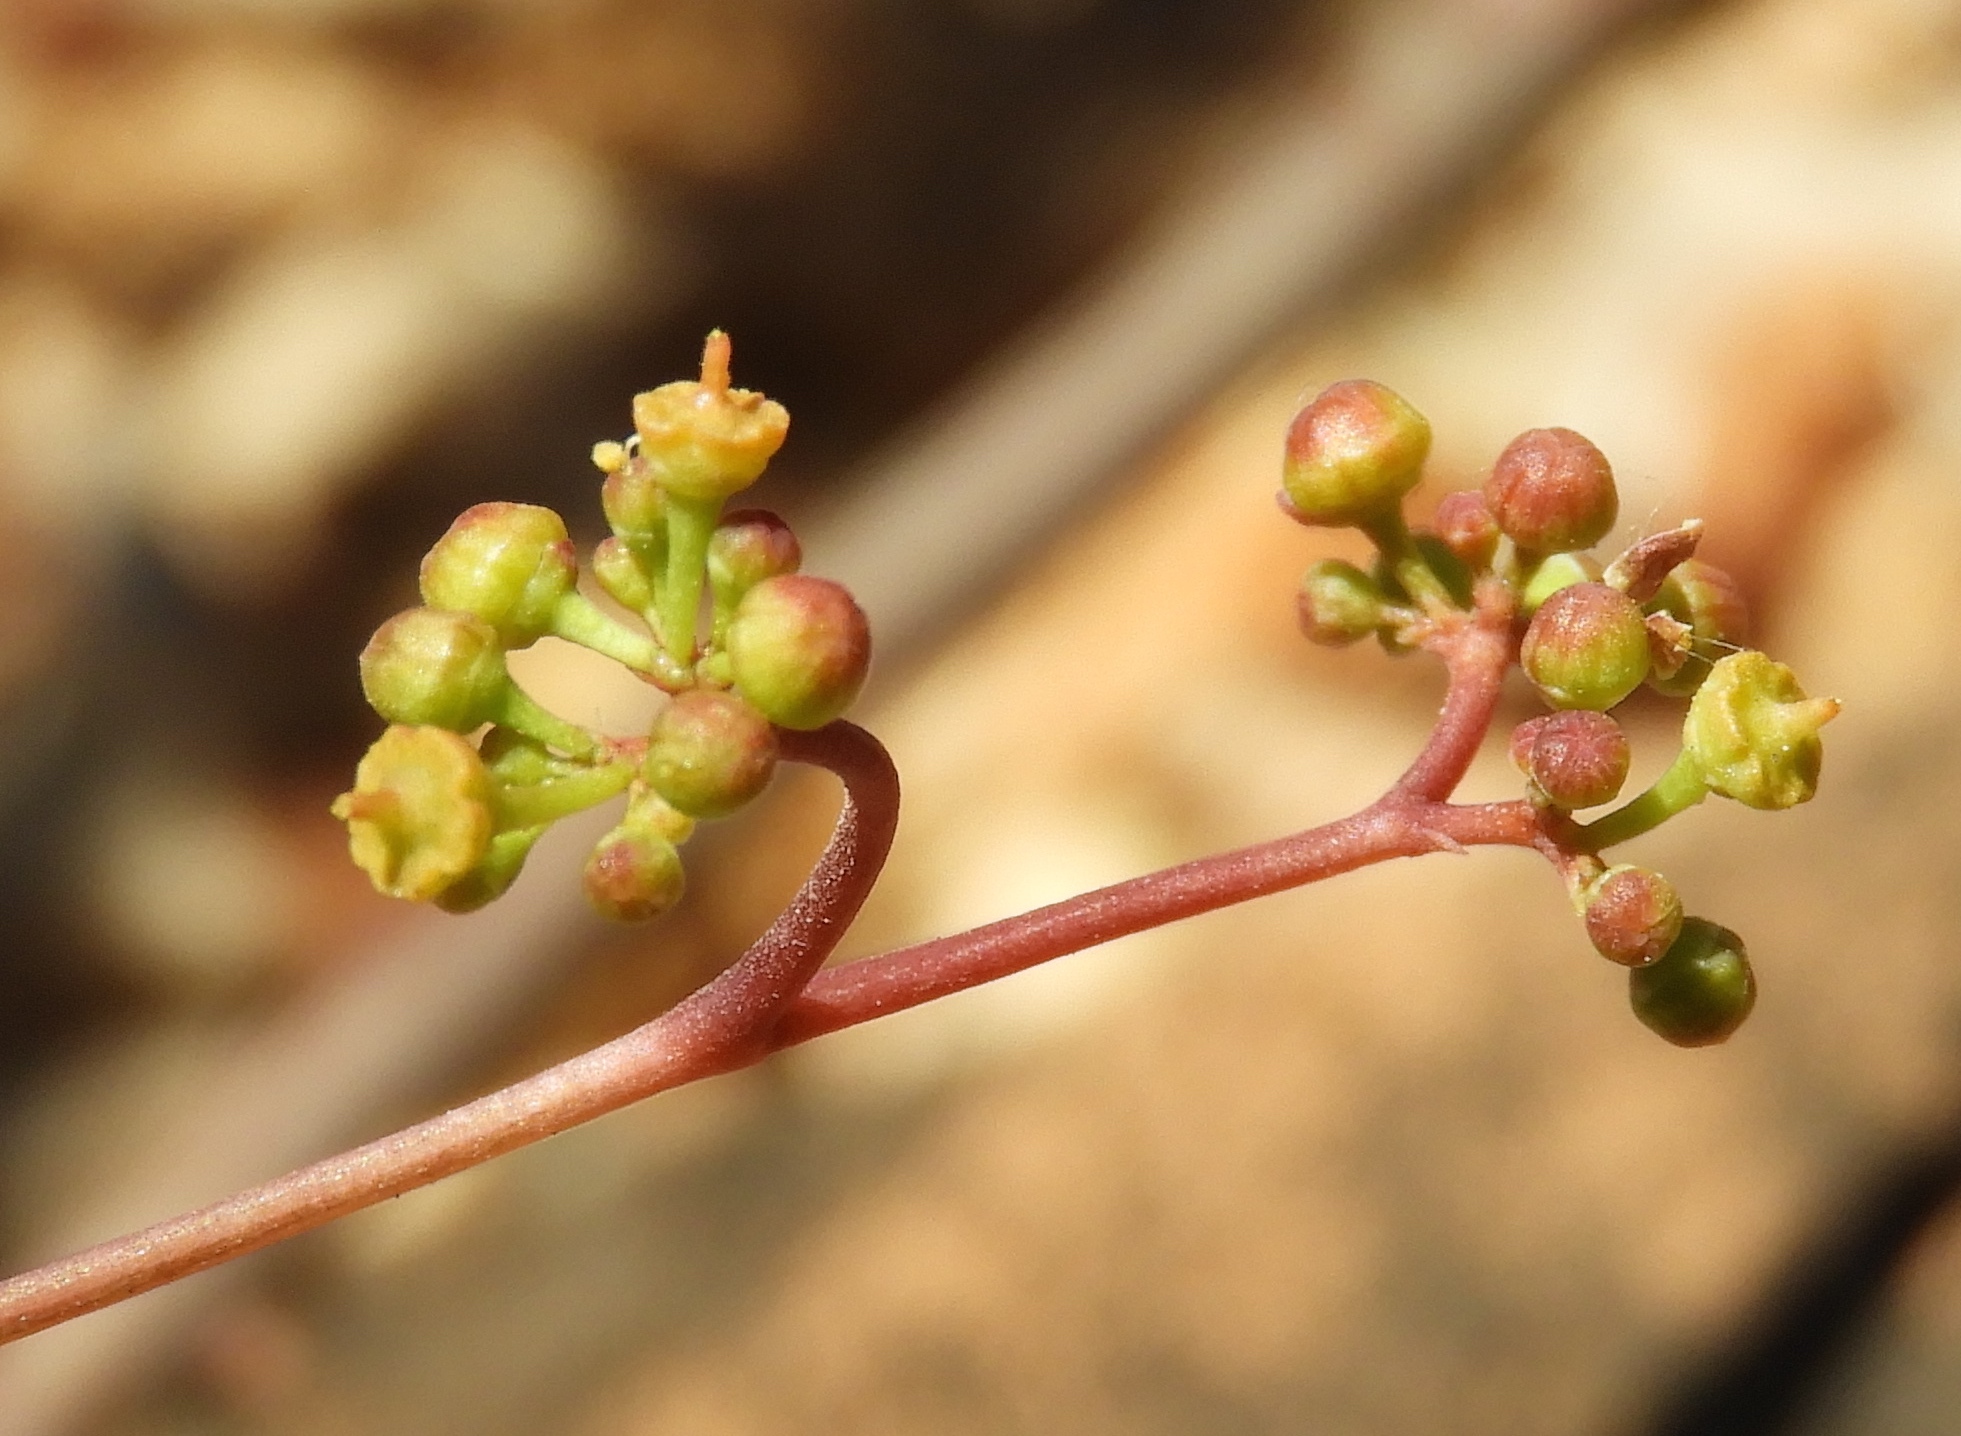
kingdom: Plantae
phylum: Tracheophyta
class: Magnoliopsida
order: Vitales
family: Vitaceae
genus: Parthenocissus
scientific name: Parthenocissus quinquefolia
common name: Virginia-creeper
